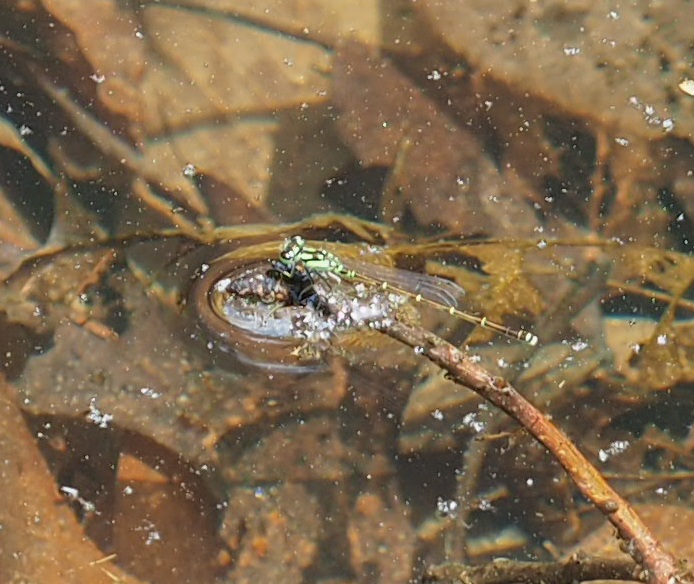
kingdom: Animalia
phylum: Arthropoda
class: Insecta
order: Odonata
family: Coenagrionidae
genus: Ischnura
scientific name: Ischnura posita
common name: Fragile forktail
